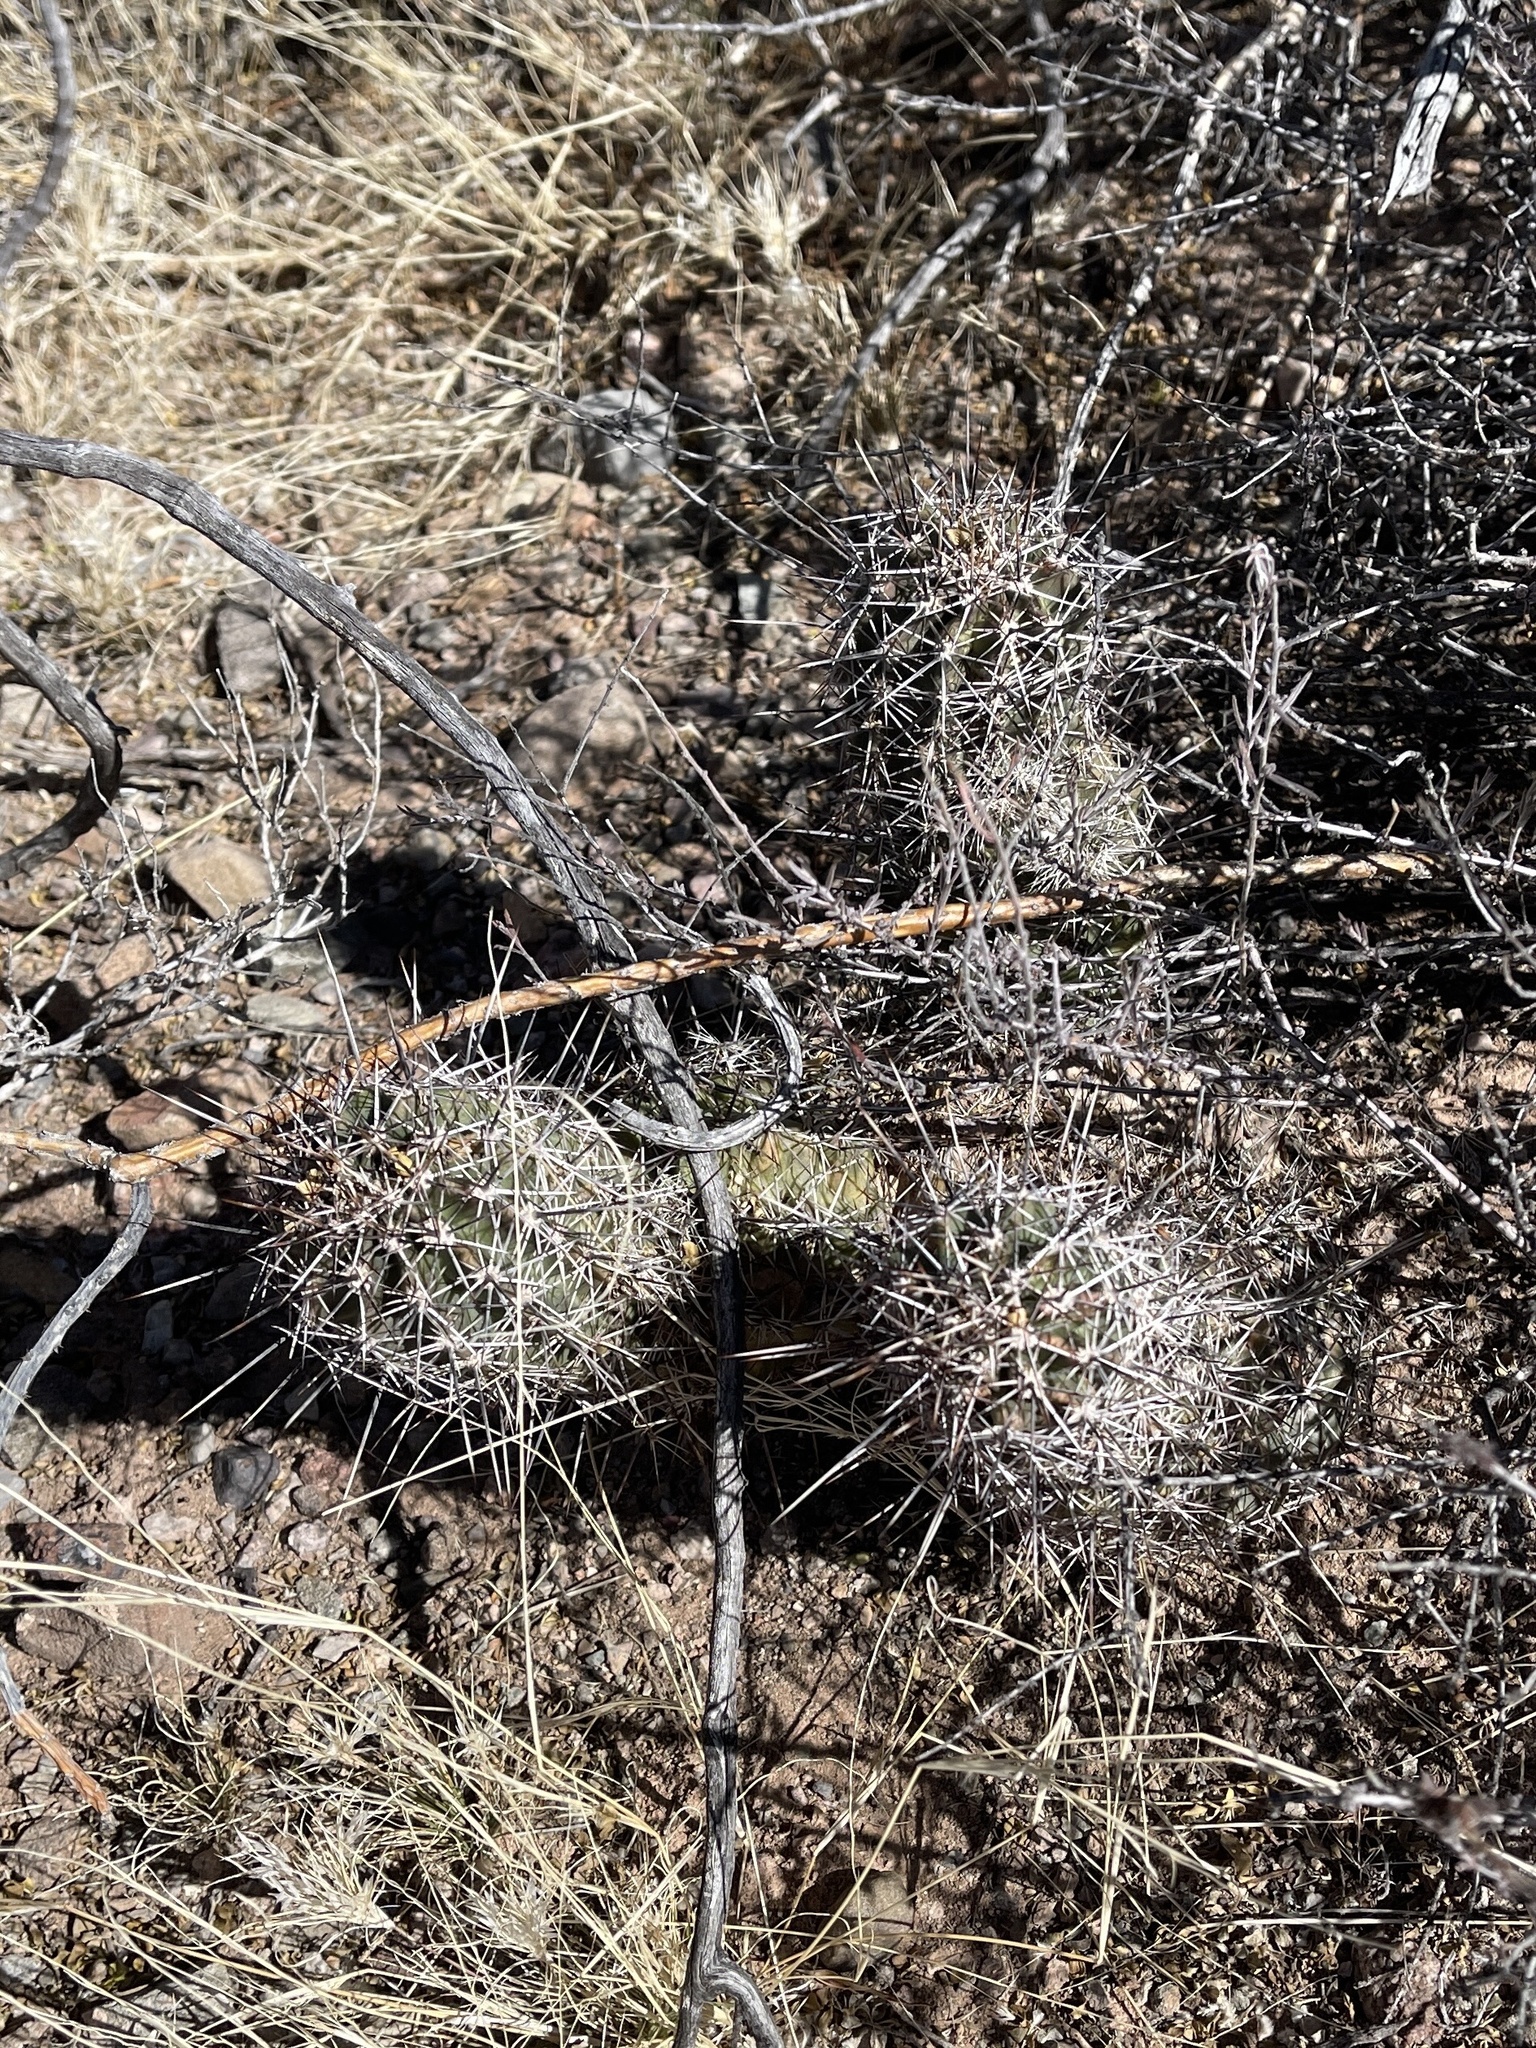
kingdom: Plantae
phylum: Tracheophyta
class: Magnoliopsida
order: Caryophyllales
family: Cactaceae
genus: Echinocereus
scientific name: Echinocereus fasciculatus
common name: Bundle hedgehog
